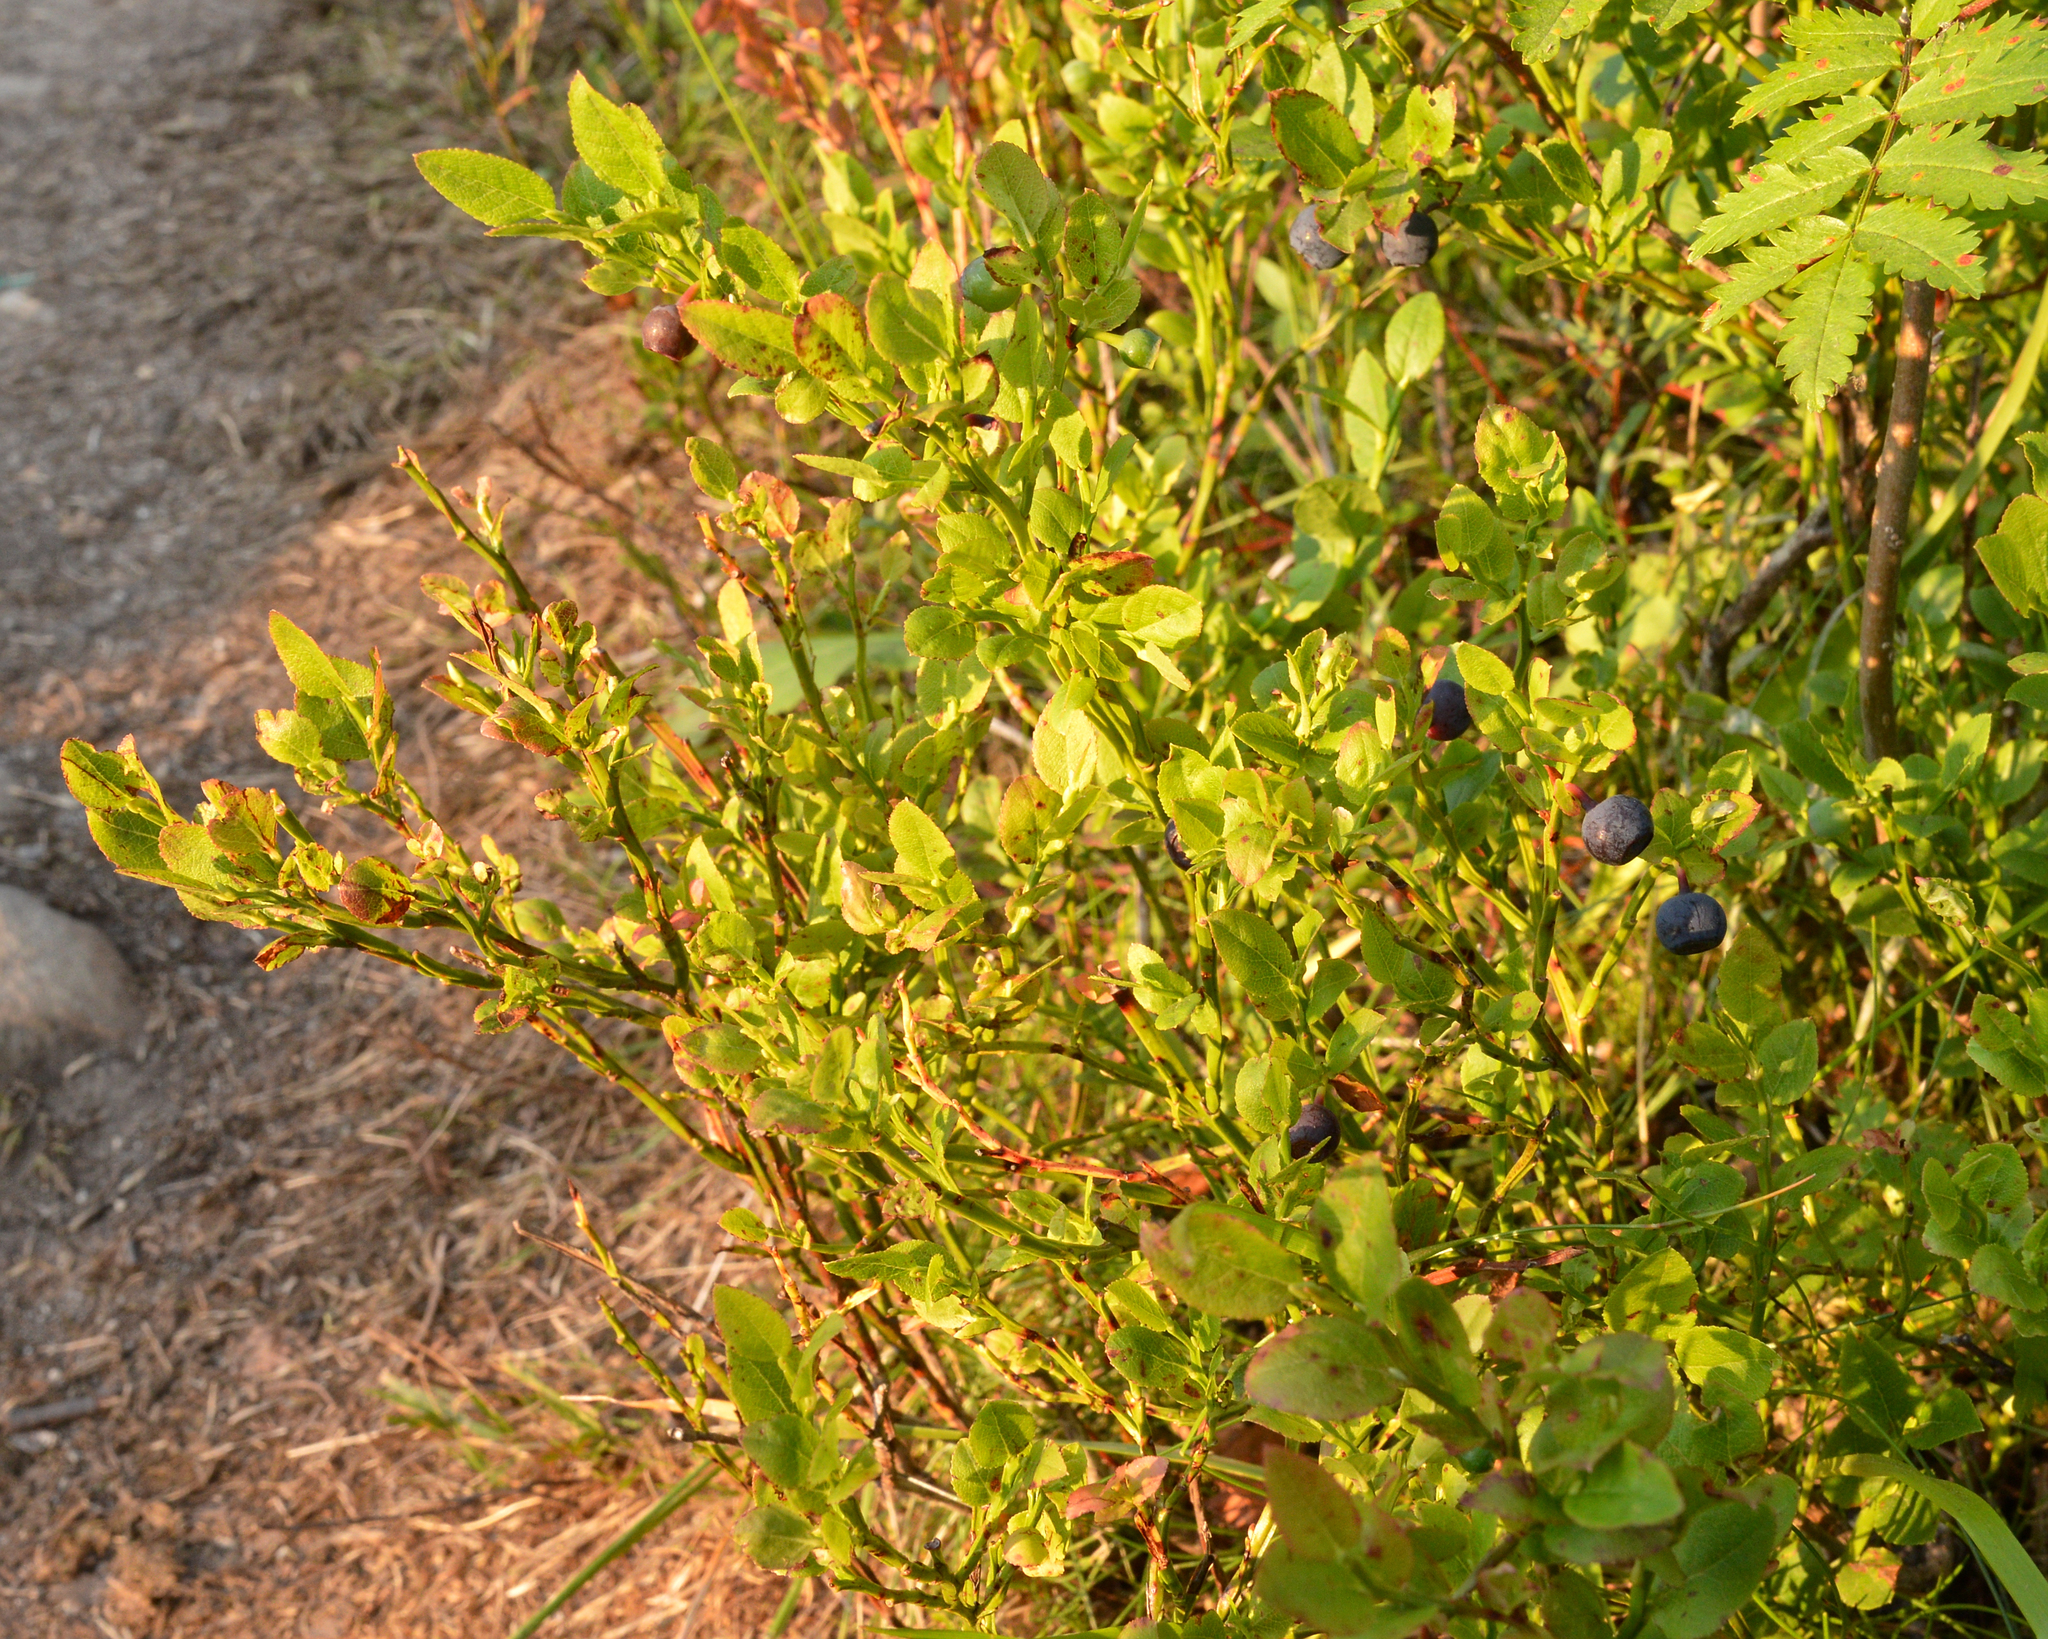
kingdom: Plantae
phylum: Tracheophyta
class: Magnoliopsida
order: Ericales
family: Ericaceae
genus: Vaccinium
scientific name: Vaccinium myrtillus
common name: Bilberry
